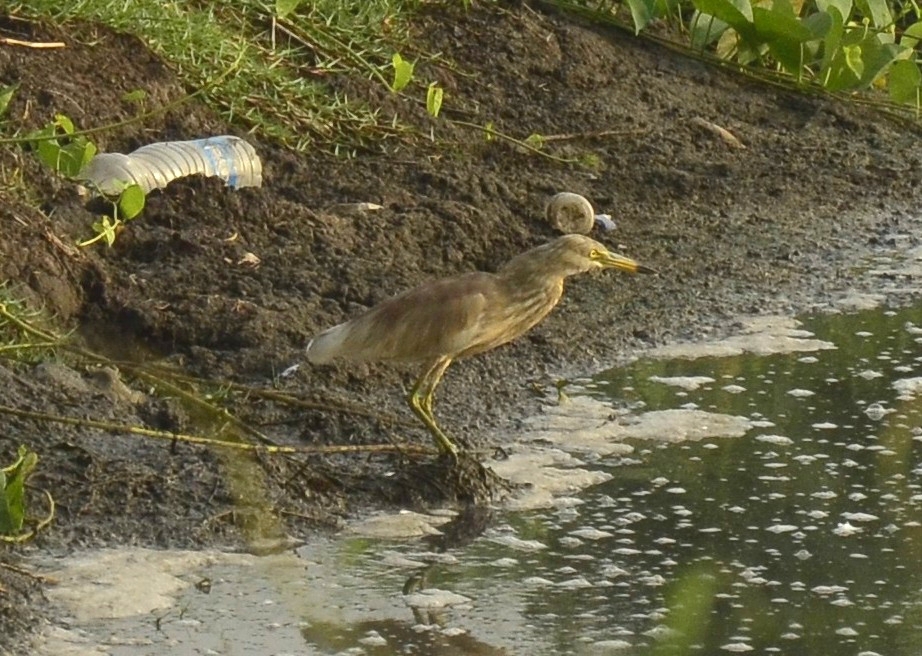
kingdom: Animalia
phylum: Chordata
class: Aves
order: Pelecaniformes
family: Ardeidae
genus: Ardeola
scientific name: Ardeola grayii
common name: Indian pond heron
